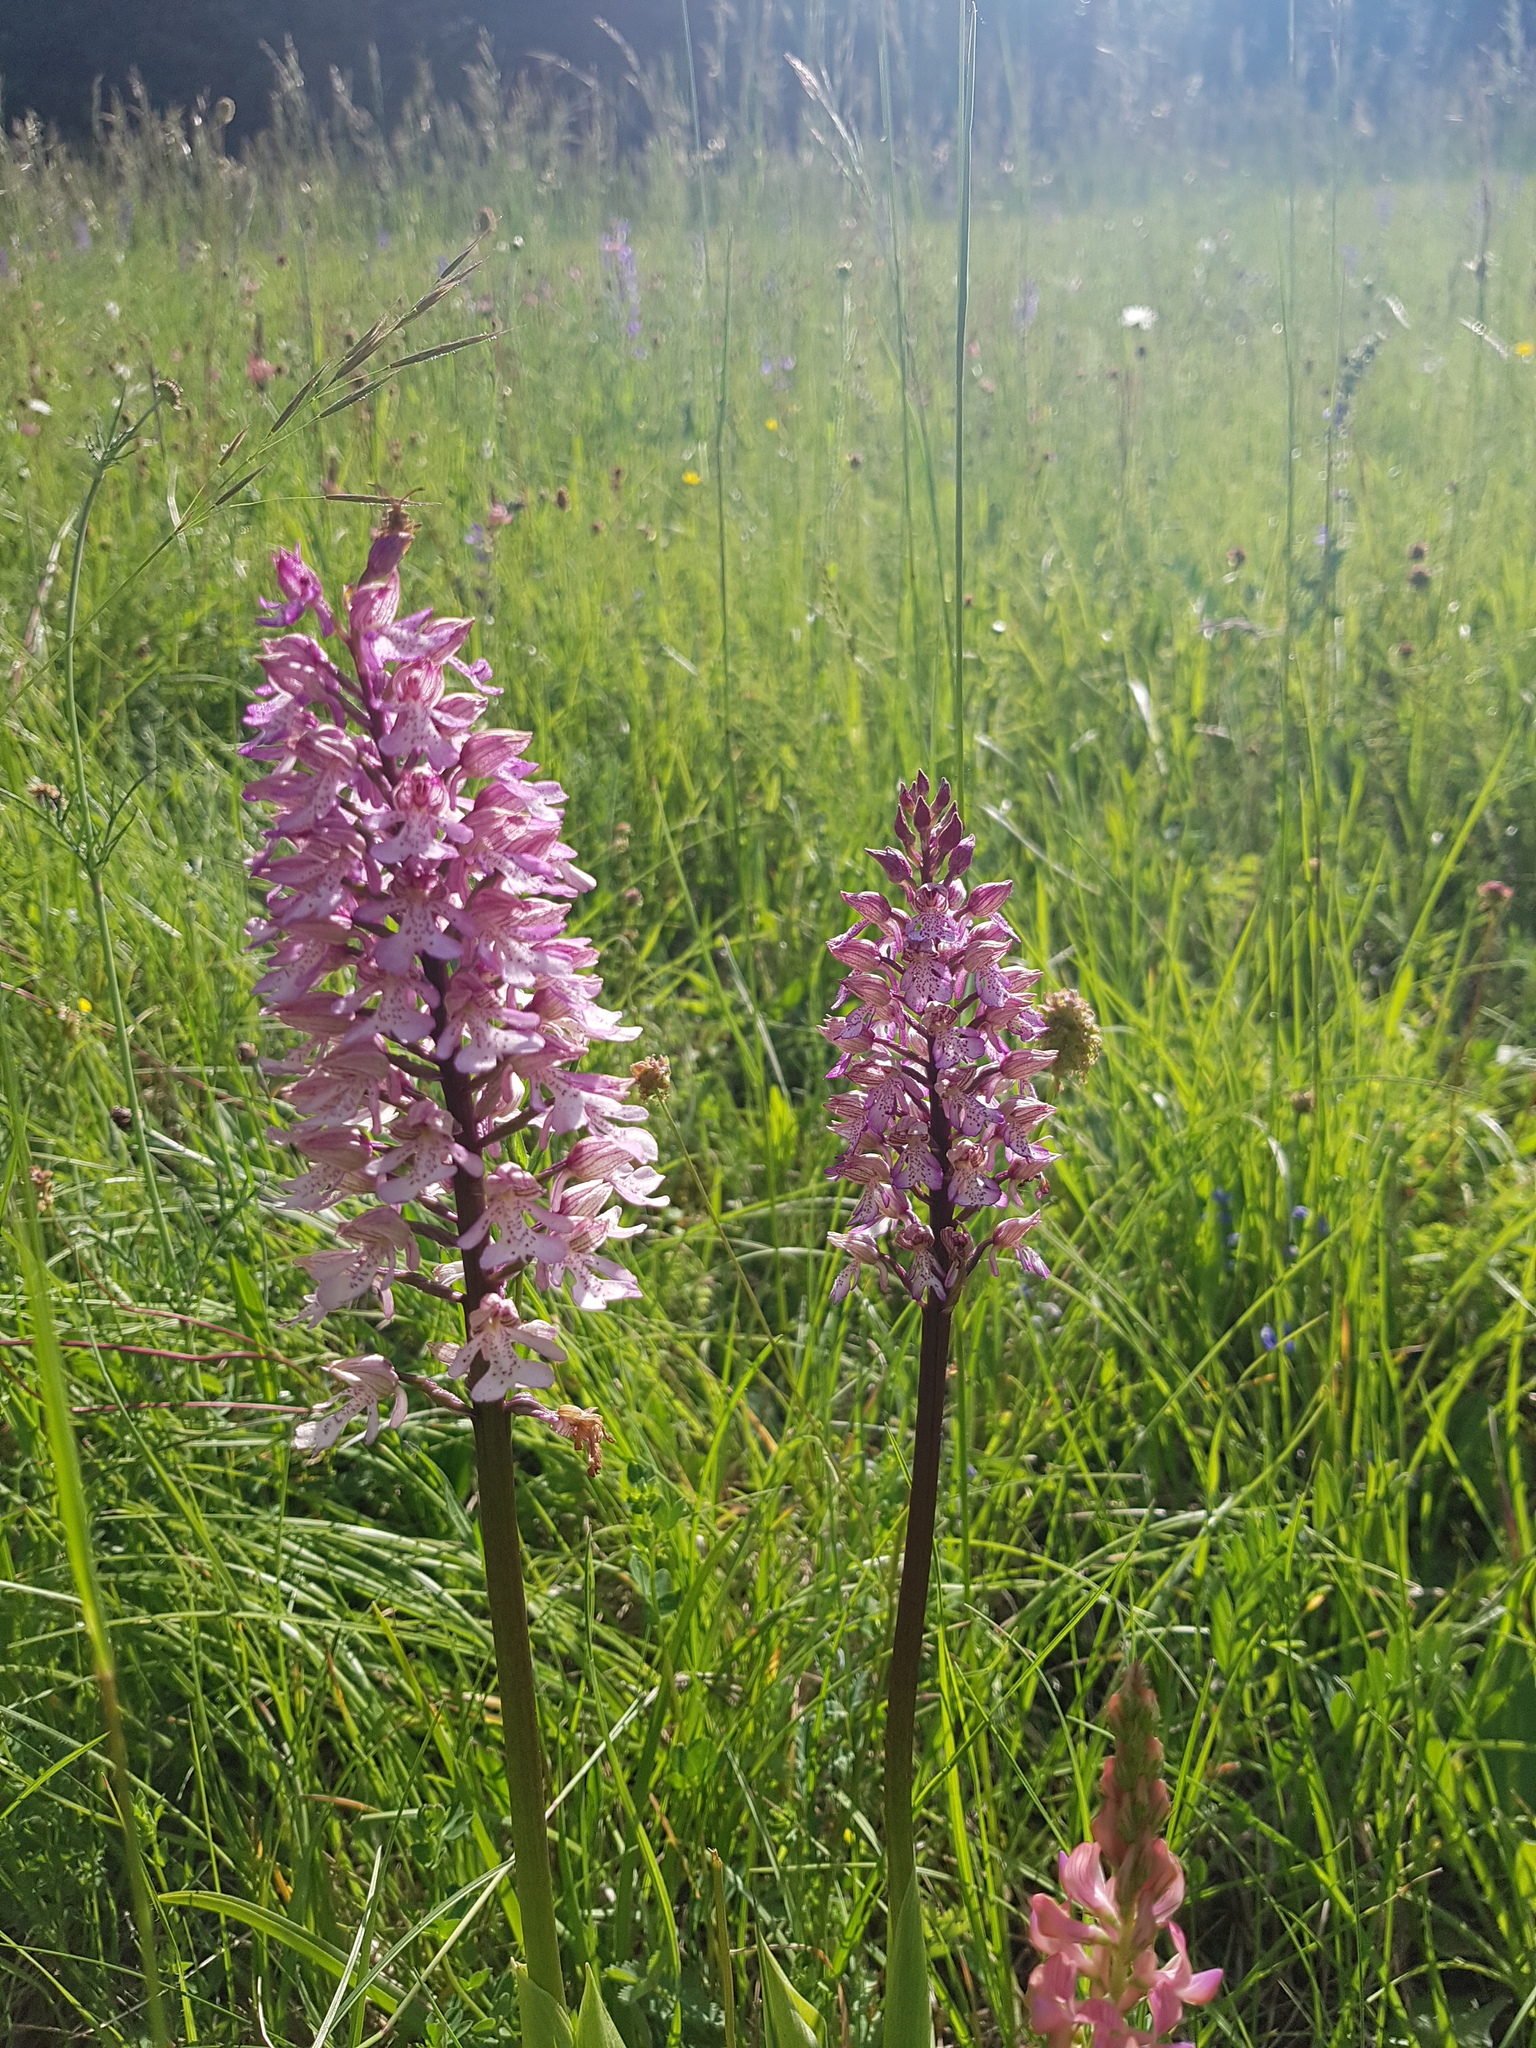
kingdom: Plantae
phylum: Tracheophyta
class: Liliopsida
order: Asparagales
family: Orchidaceae
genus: Orchis
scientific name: Orchis hybrida
